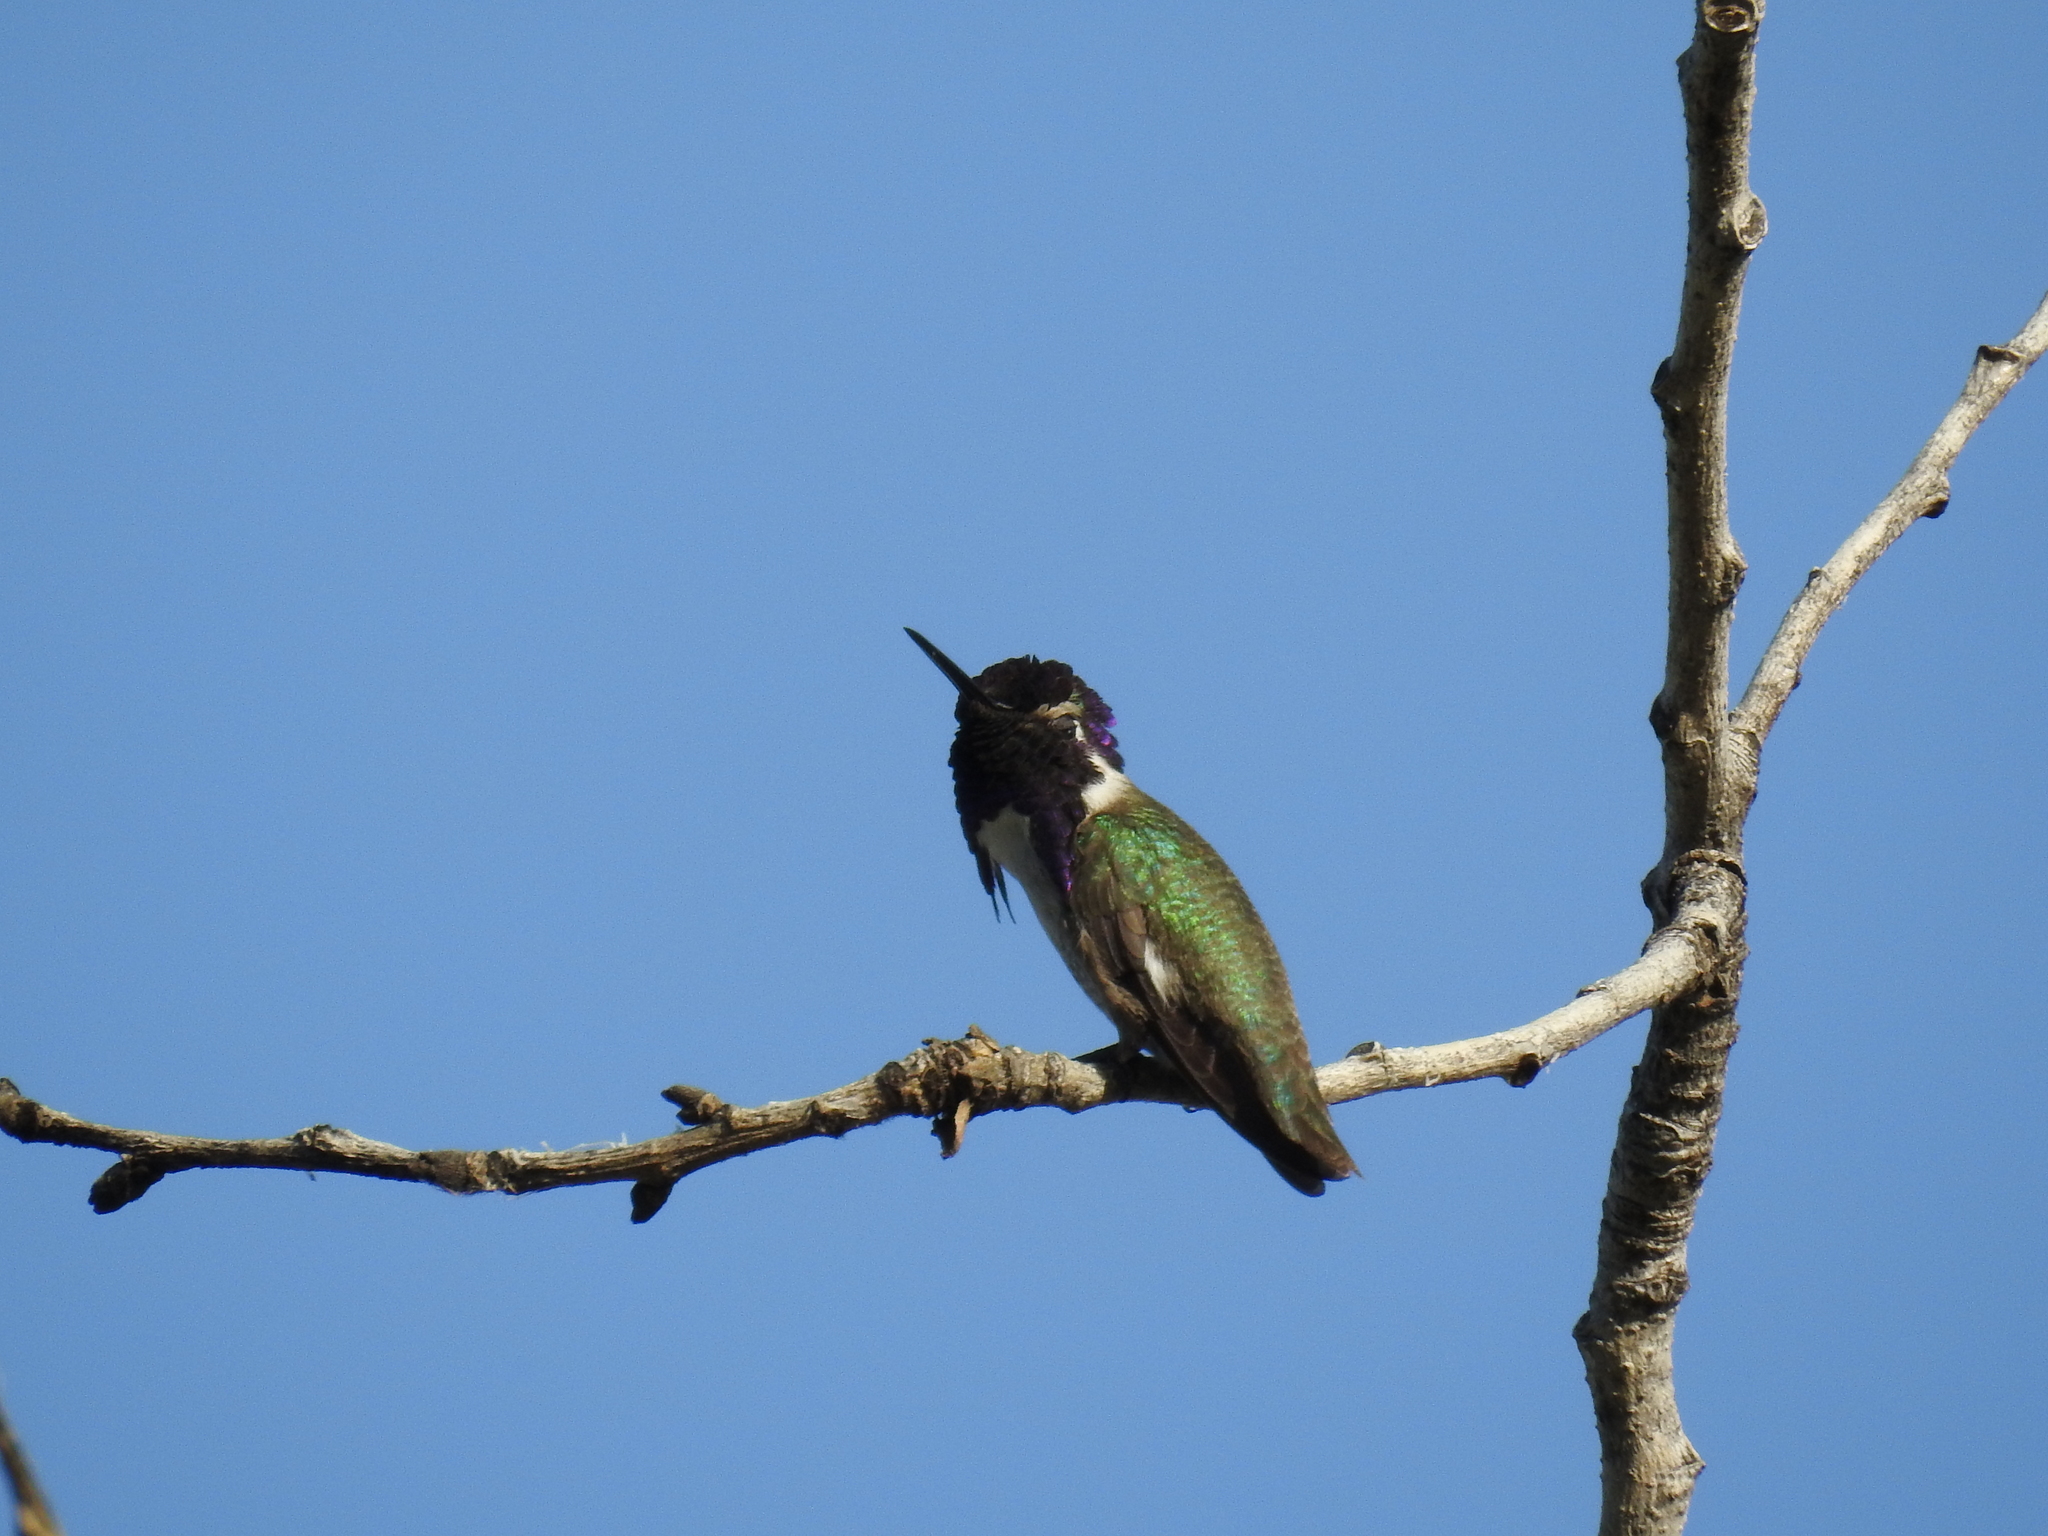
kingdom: Animalia
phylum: Chordata
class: Aves
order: Apodiformes
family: Trochilidae
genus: Calypte
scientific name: Calypte costae
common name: Costa's hummingbird
